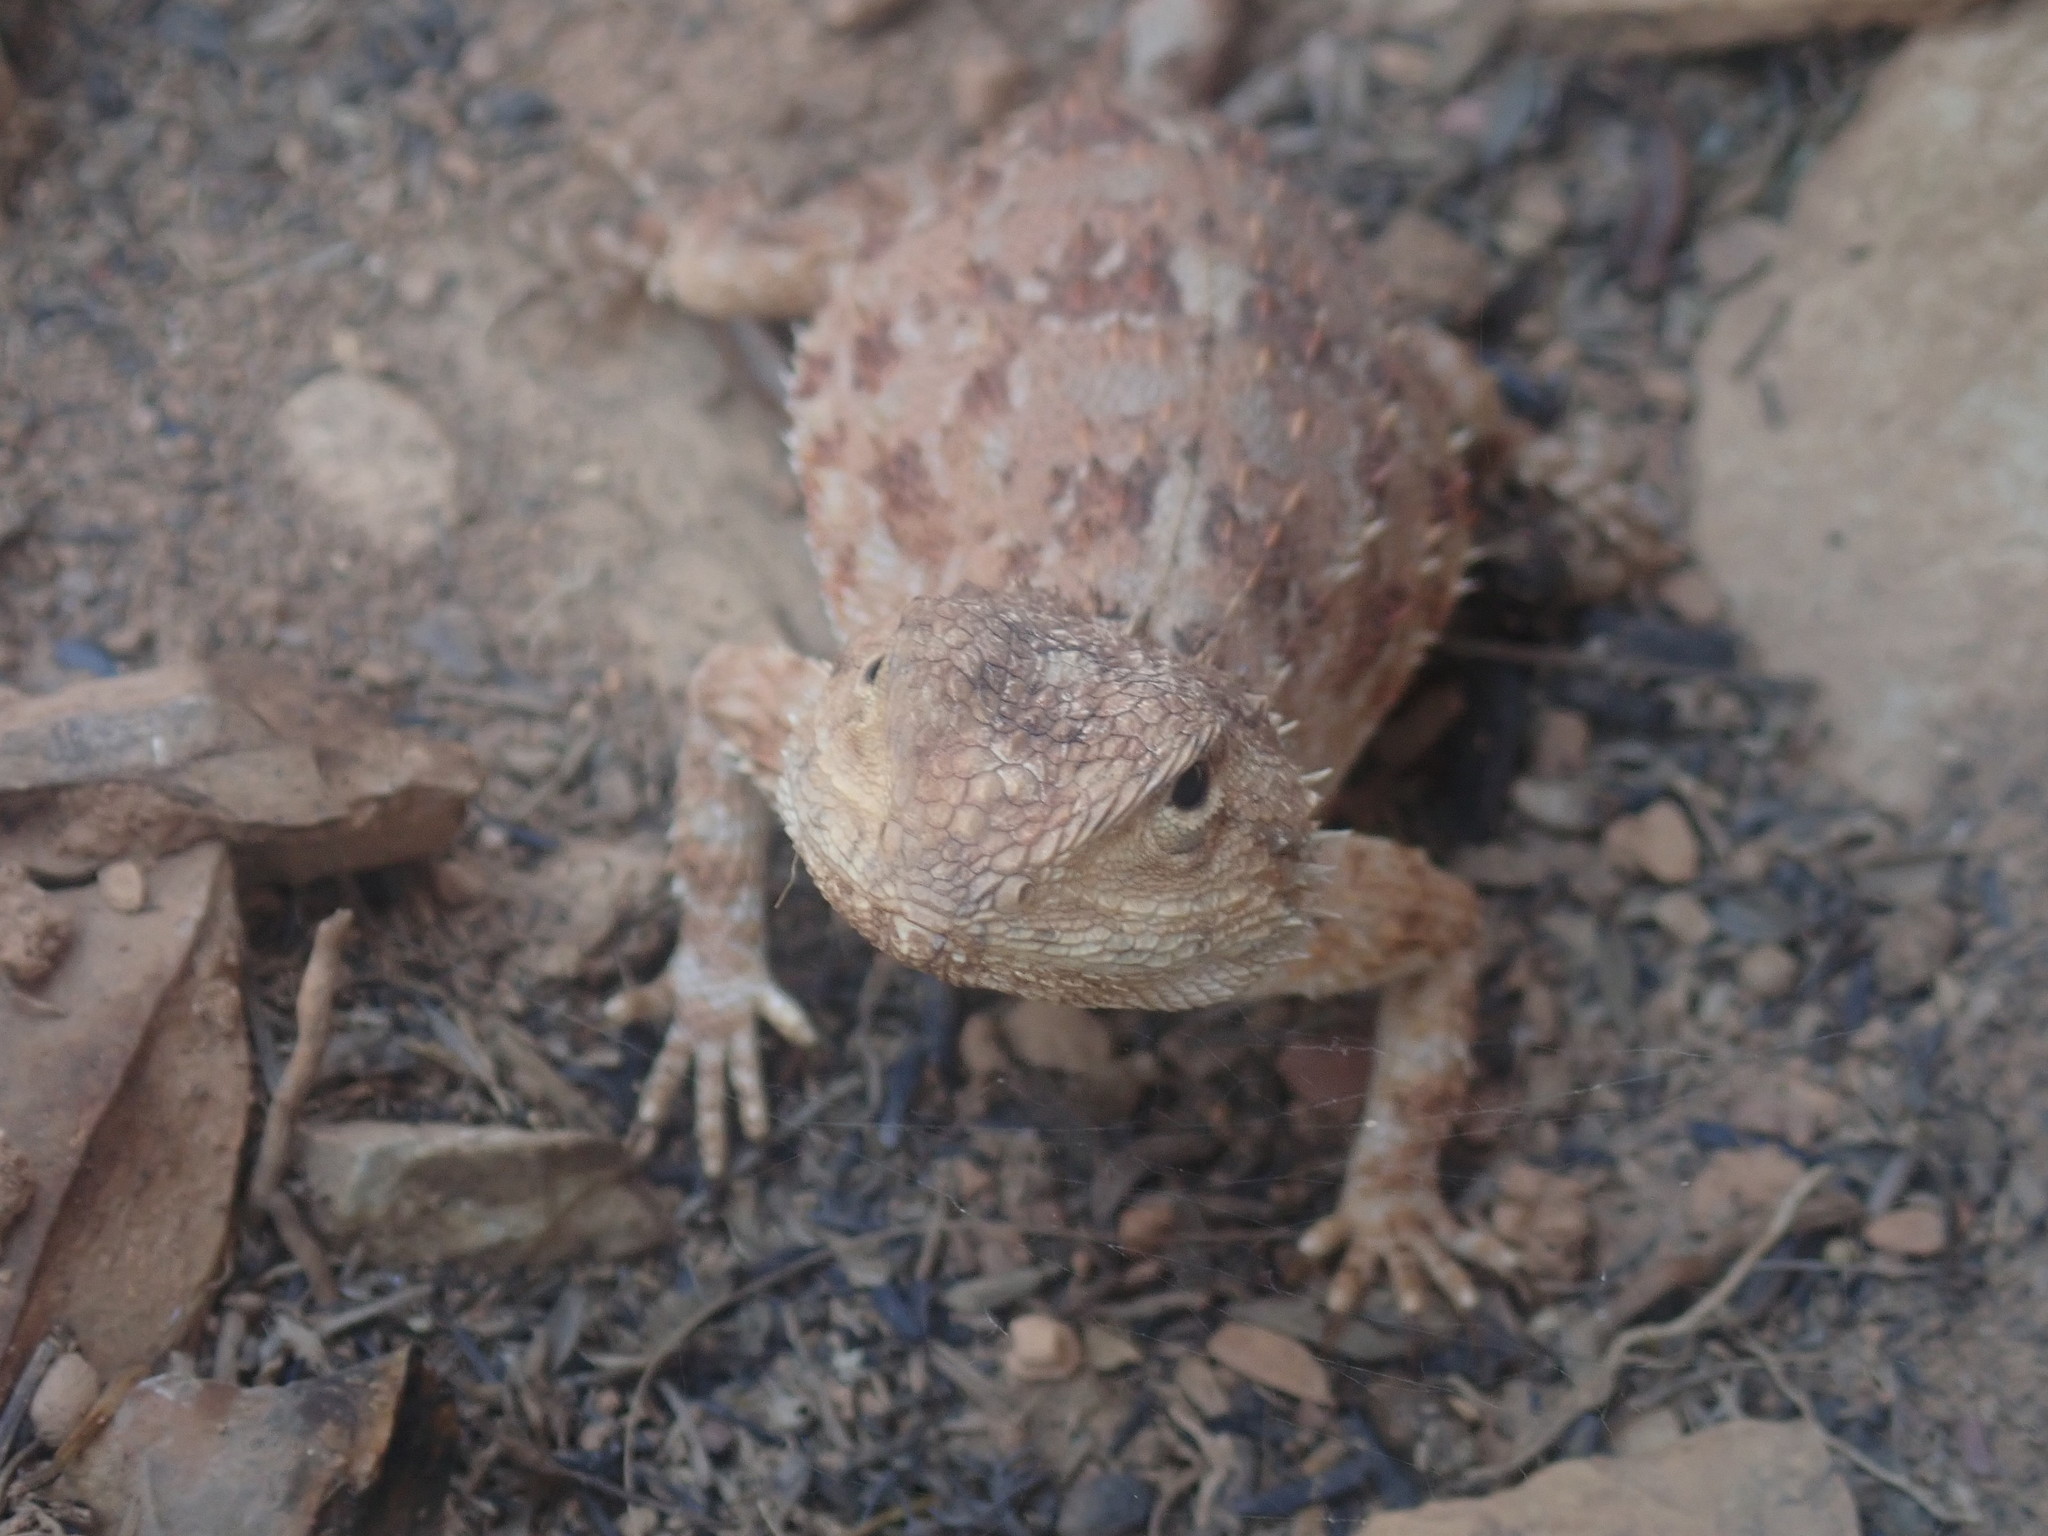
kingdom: Animalia
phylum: Chordata
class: Squamata
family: Agamidae
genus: Agama
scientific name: Agama aculeata
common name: Common ground agama
